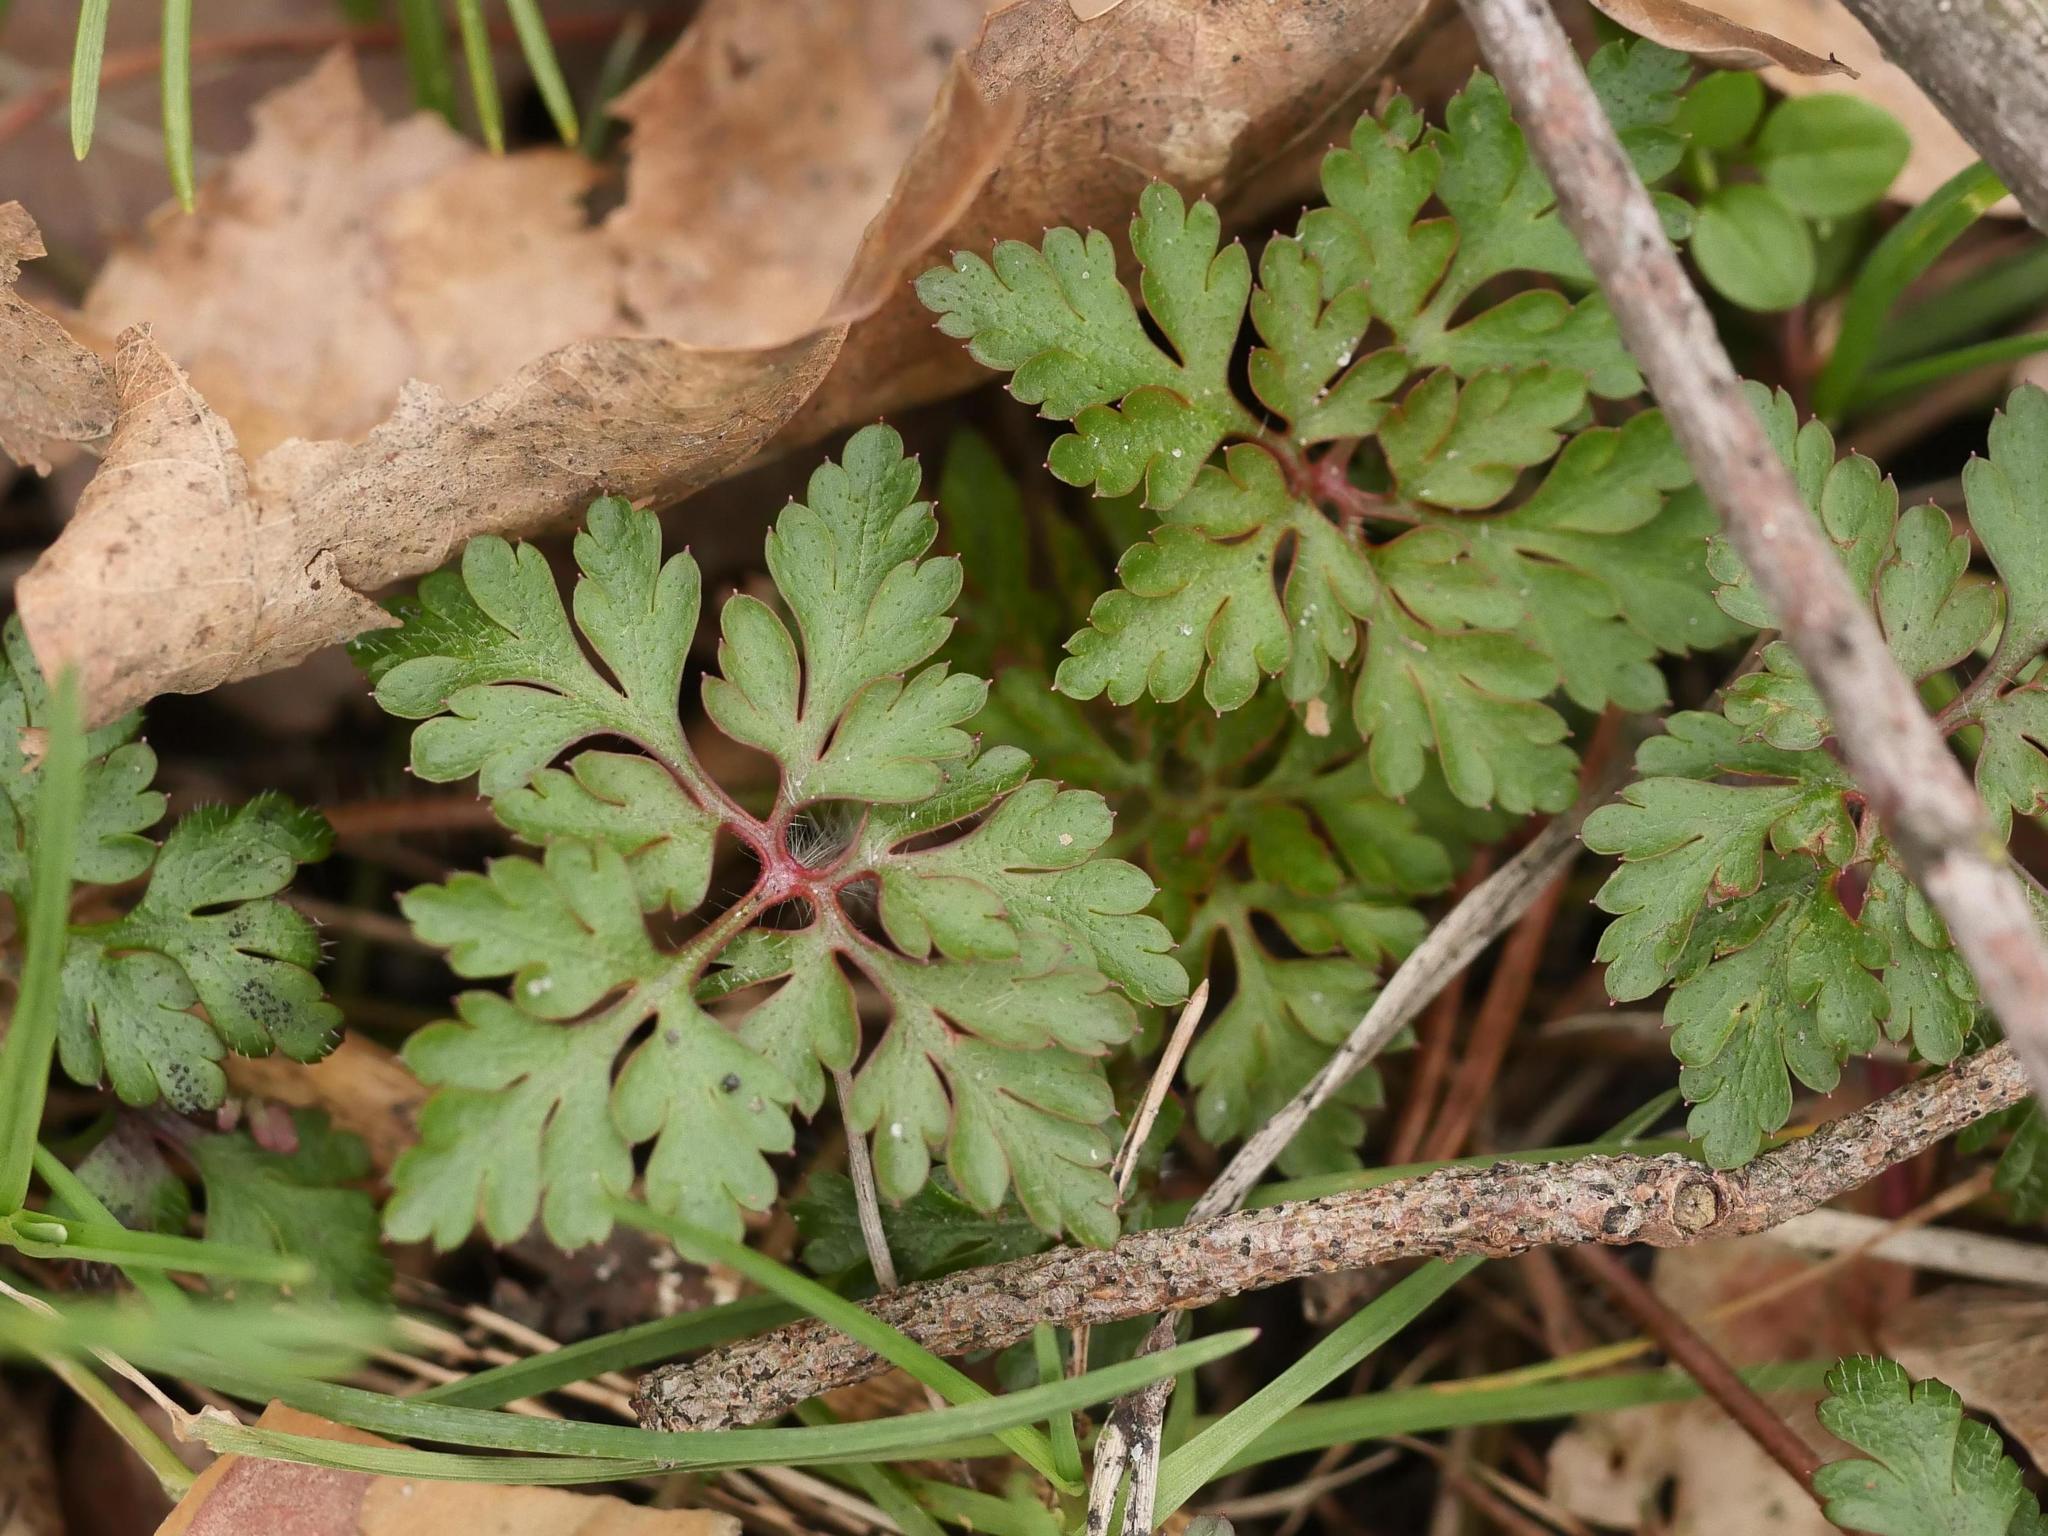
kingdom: Plantae
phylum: Tracheophyta
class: Magnoliopsida
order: Geraniales
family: Geraniaceae
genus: Geranium
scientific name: Geranium robertianum
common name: Herb-robert
